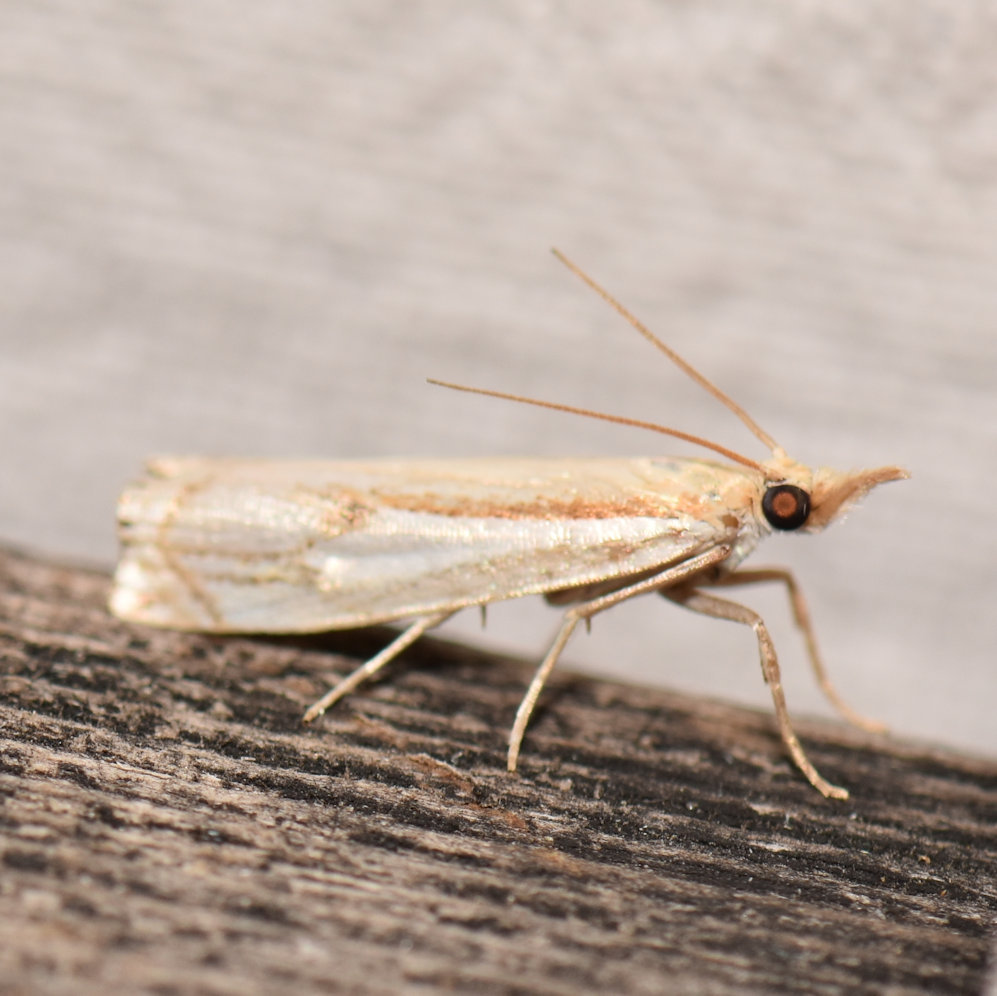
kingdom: Animalia
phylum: Arthropoda
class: Insecta
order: Lepidoptera
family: Crambidae
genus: Crambus
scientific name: Crambus agitatellus
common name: Double-banded grass-veneer
